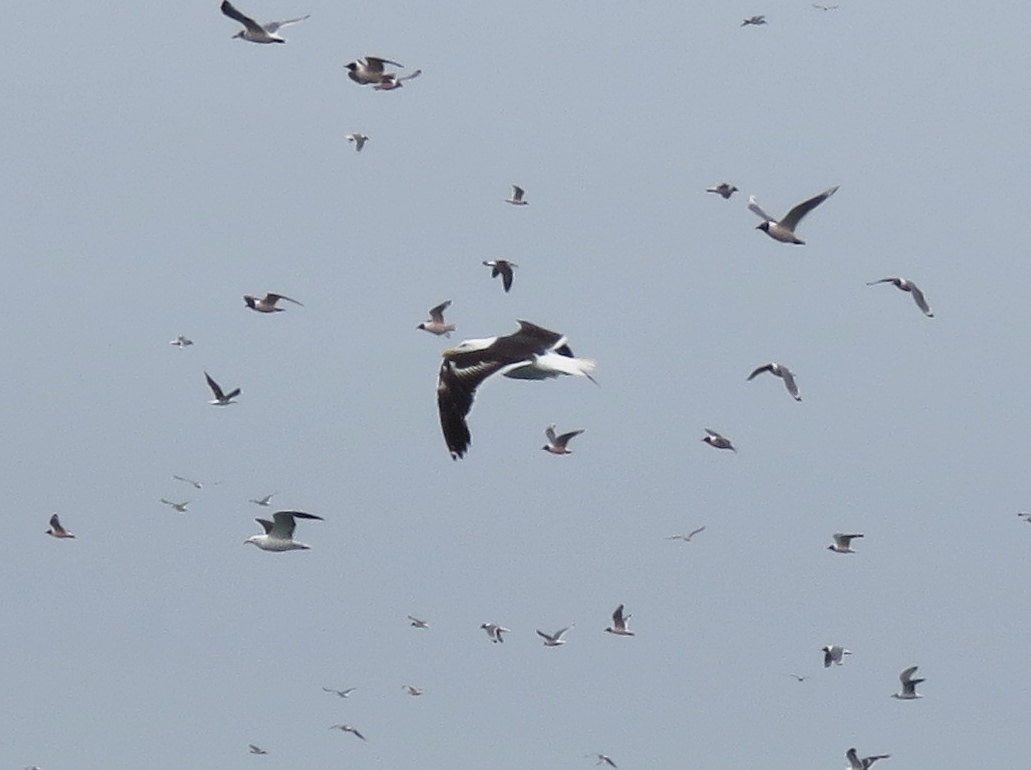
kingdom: Animalia
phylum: Chordata
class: Aves
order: Charadriiformes
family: Laridae
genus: Larus
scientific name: Larus dominicanus
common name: Kelp gull
